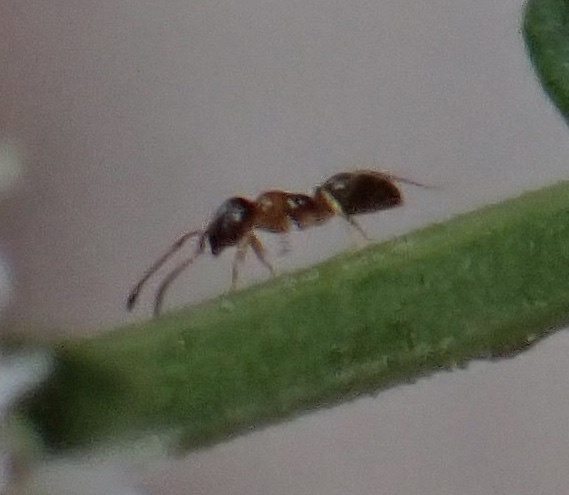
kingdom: Animalia
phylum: Arthropoda
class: Insecta
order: Hymenoptera
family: Formicidae
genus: Lasius
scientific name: Lasius emarginatus
